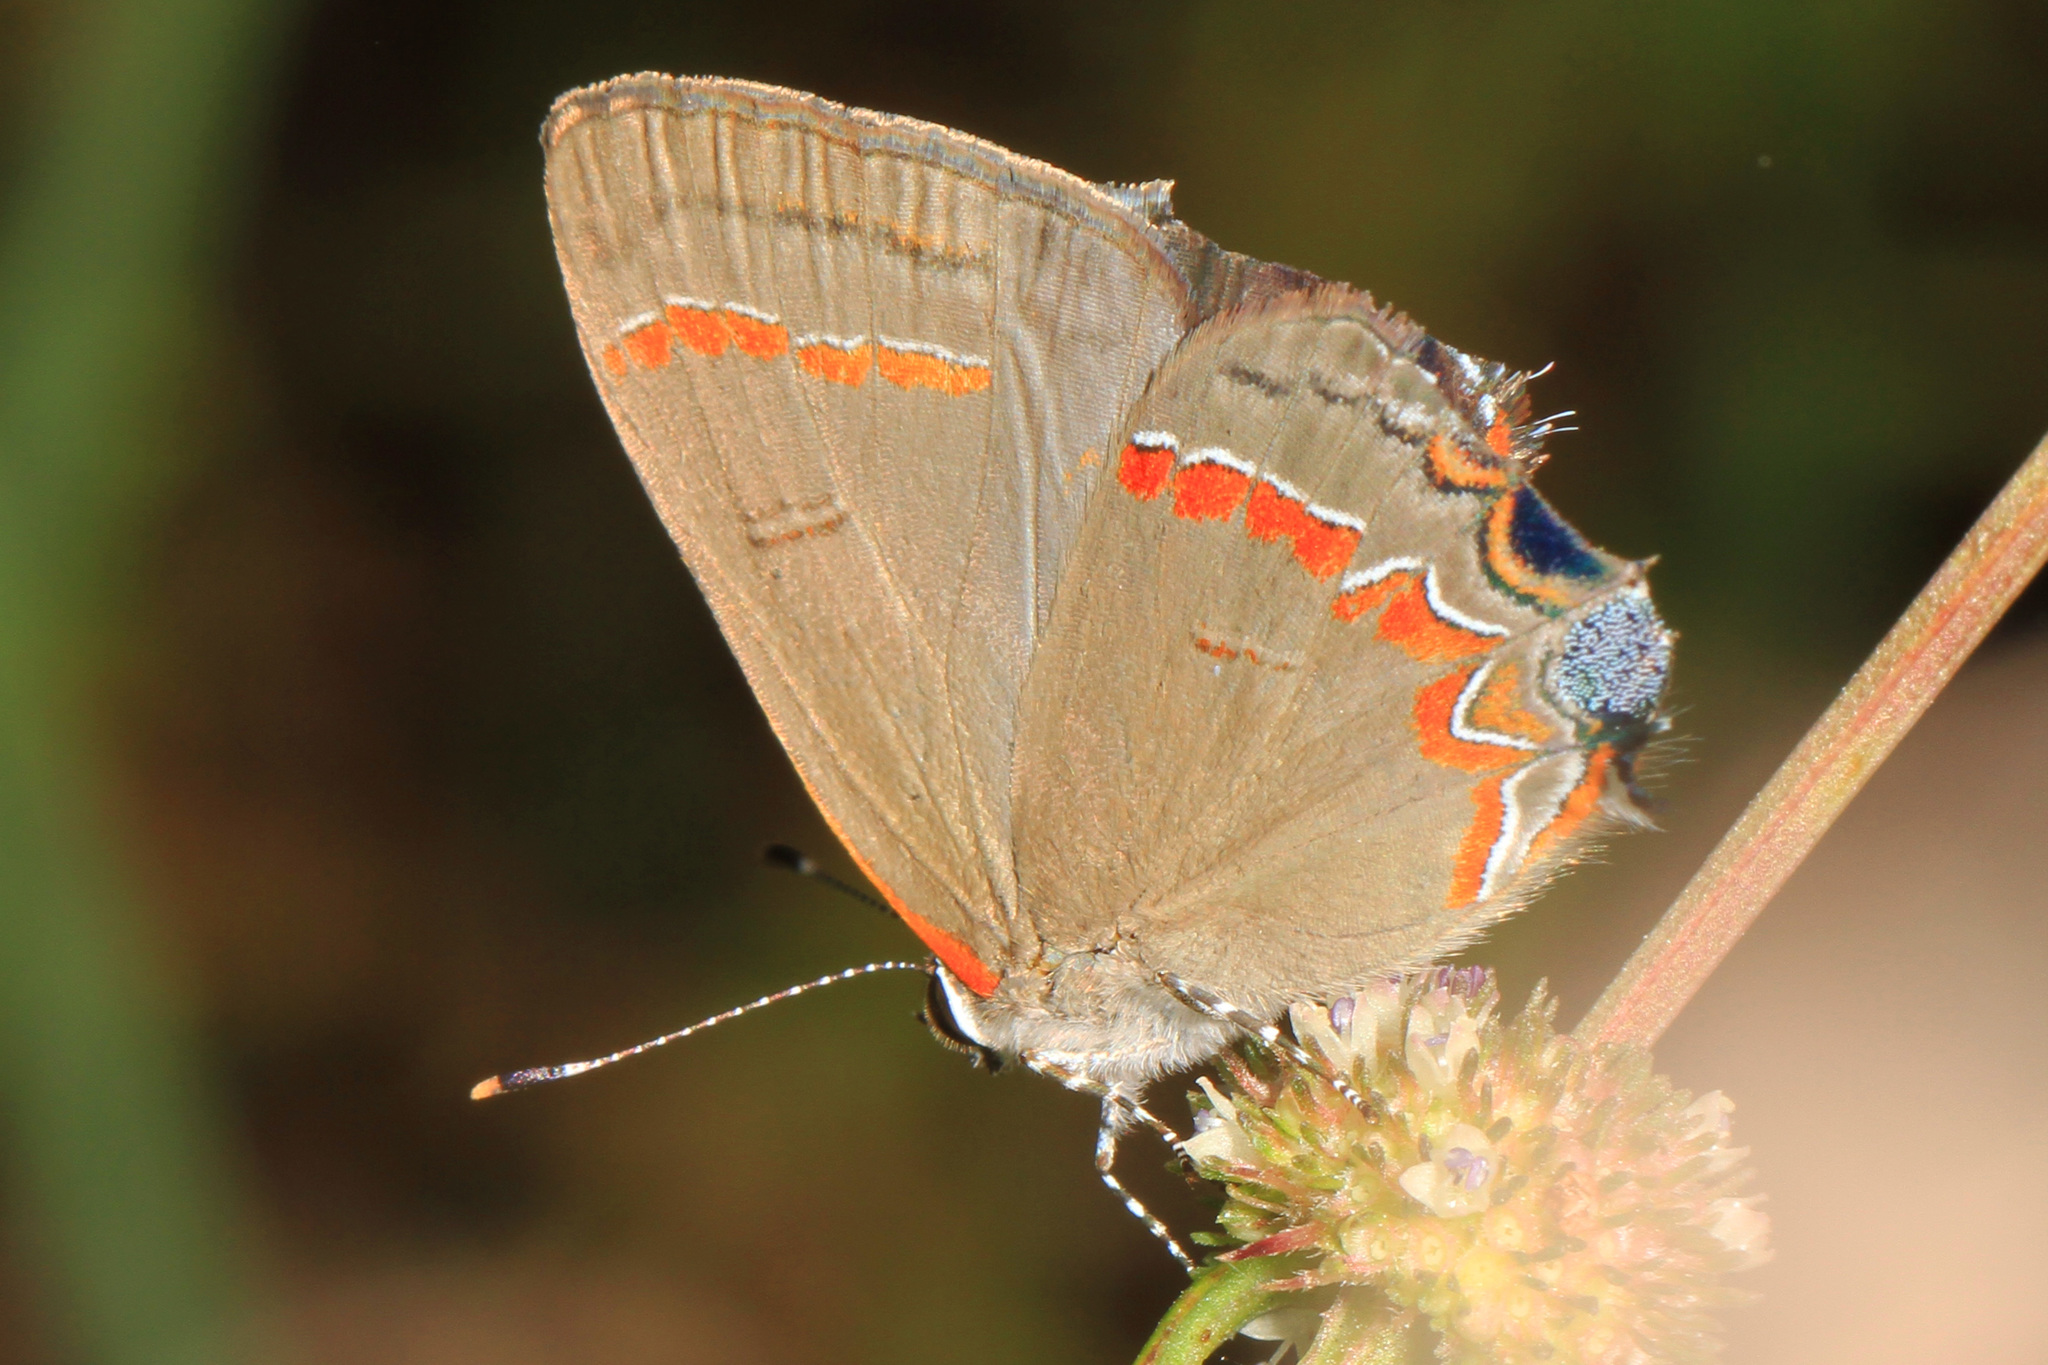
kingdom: Animalia
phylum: Arthropoda
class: Insecta
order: Lepidoptera
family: Lycaenidae
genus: Calycopis
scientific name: Calycopis cecrops
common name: Red-banded hairstreak
